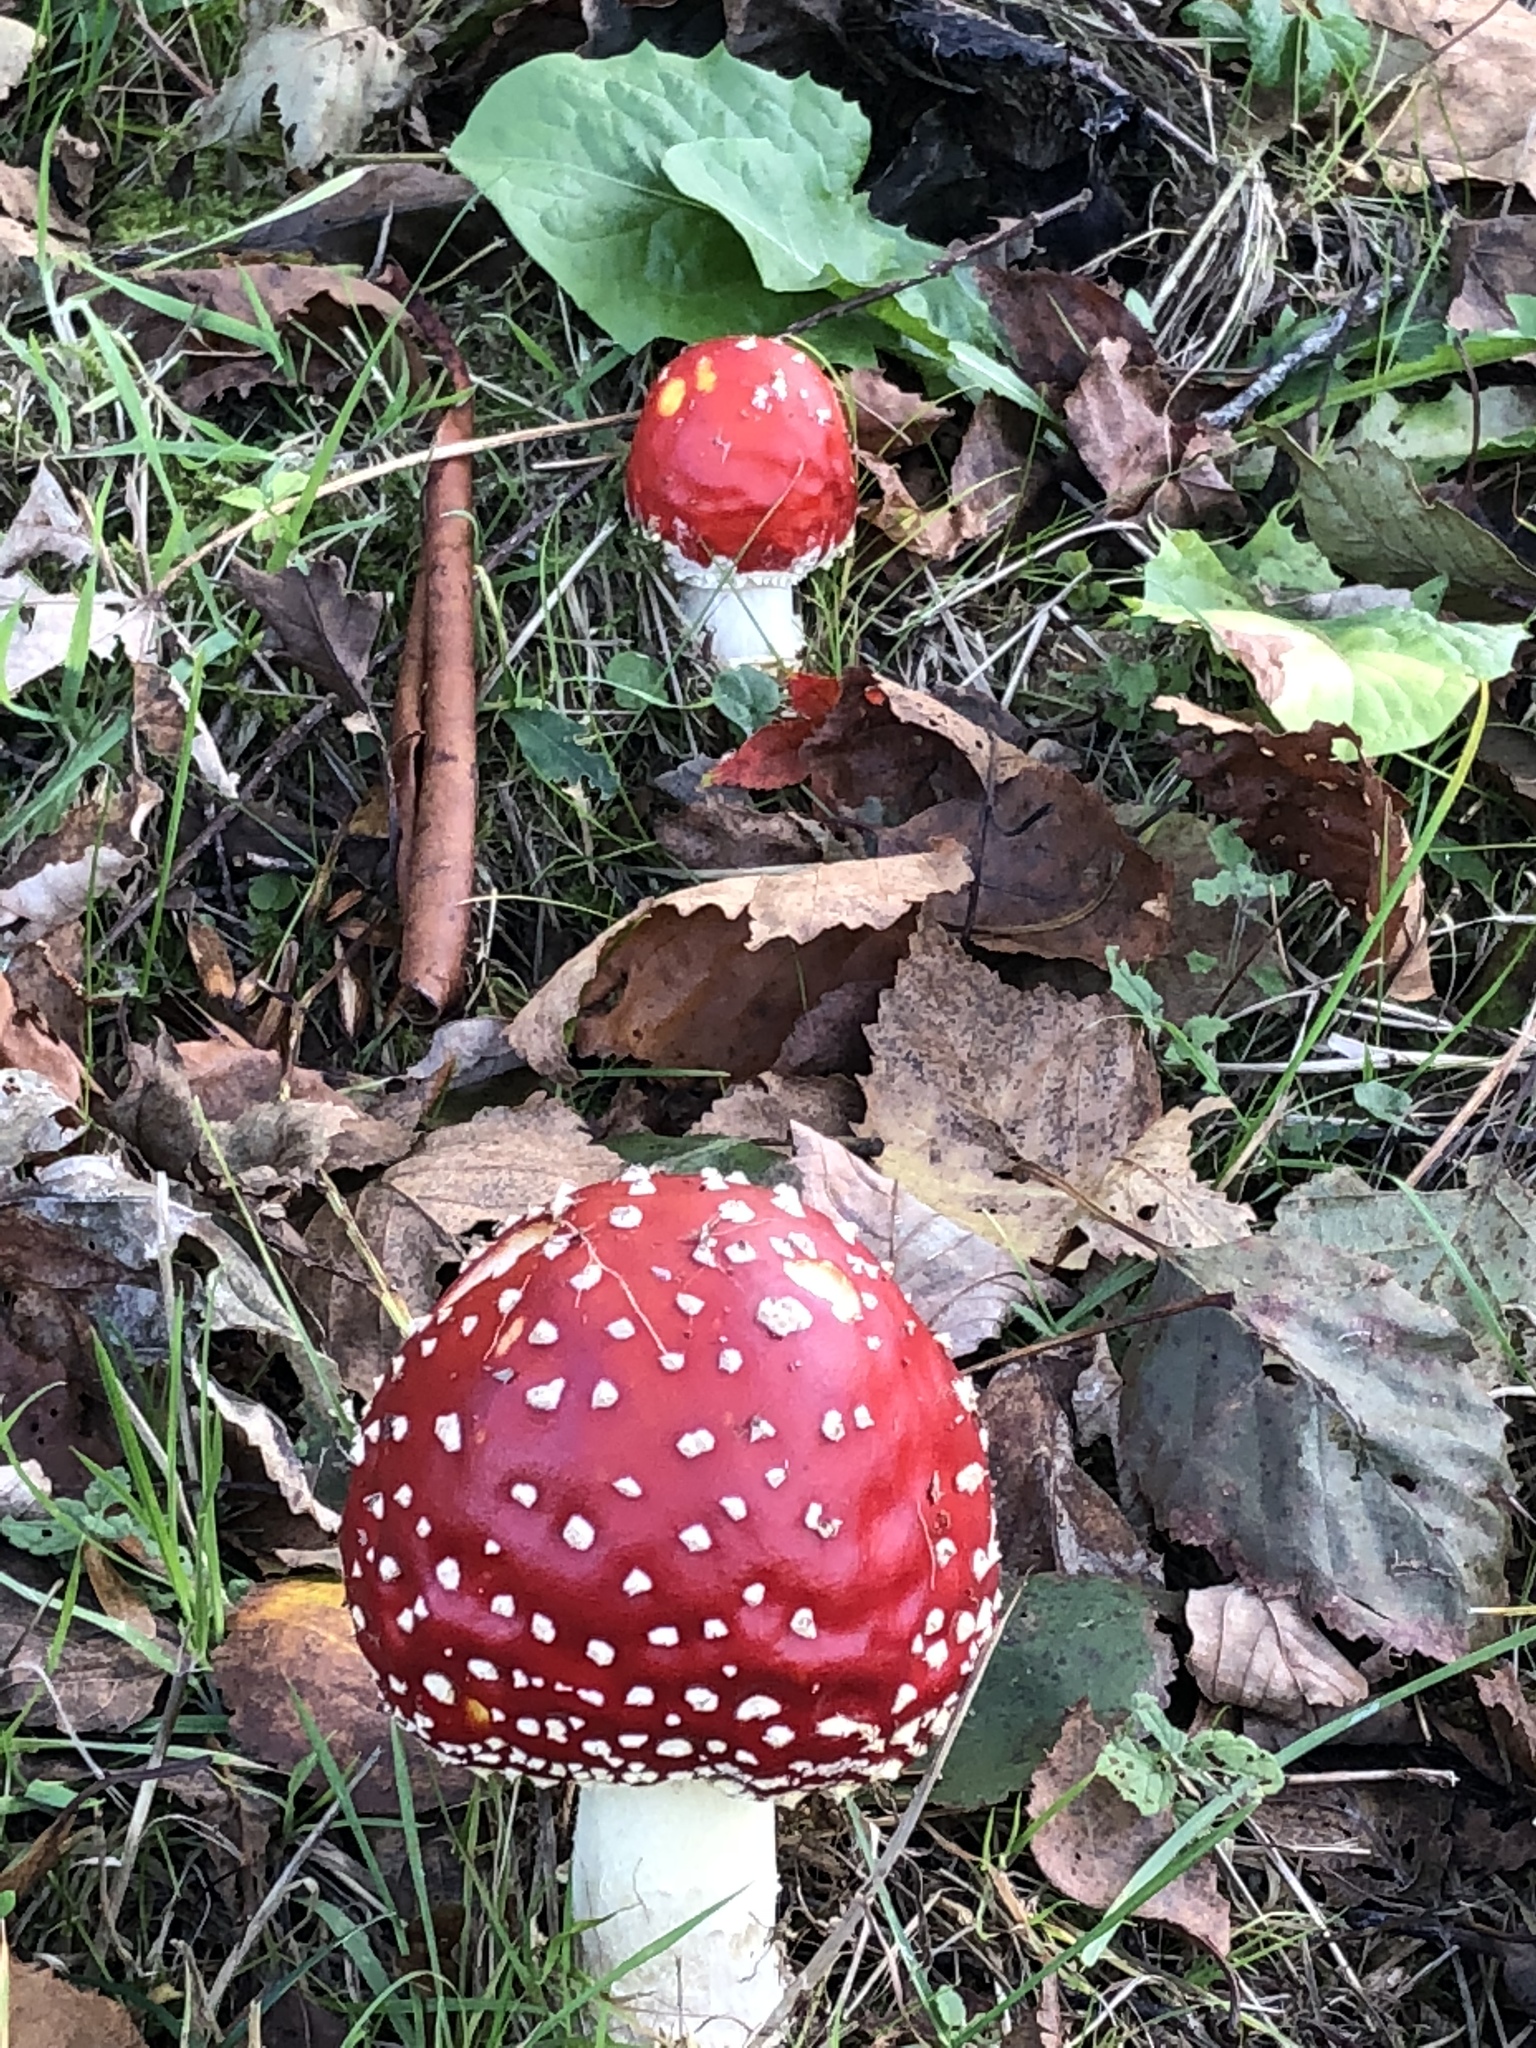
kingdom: Fungi
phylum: Basidiomycota
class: Agaricomycetes
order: Agaricales
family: Amanitaceae
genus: Amanita
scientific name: Amanita muscaria
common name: Fly agaric
